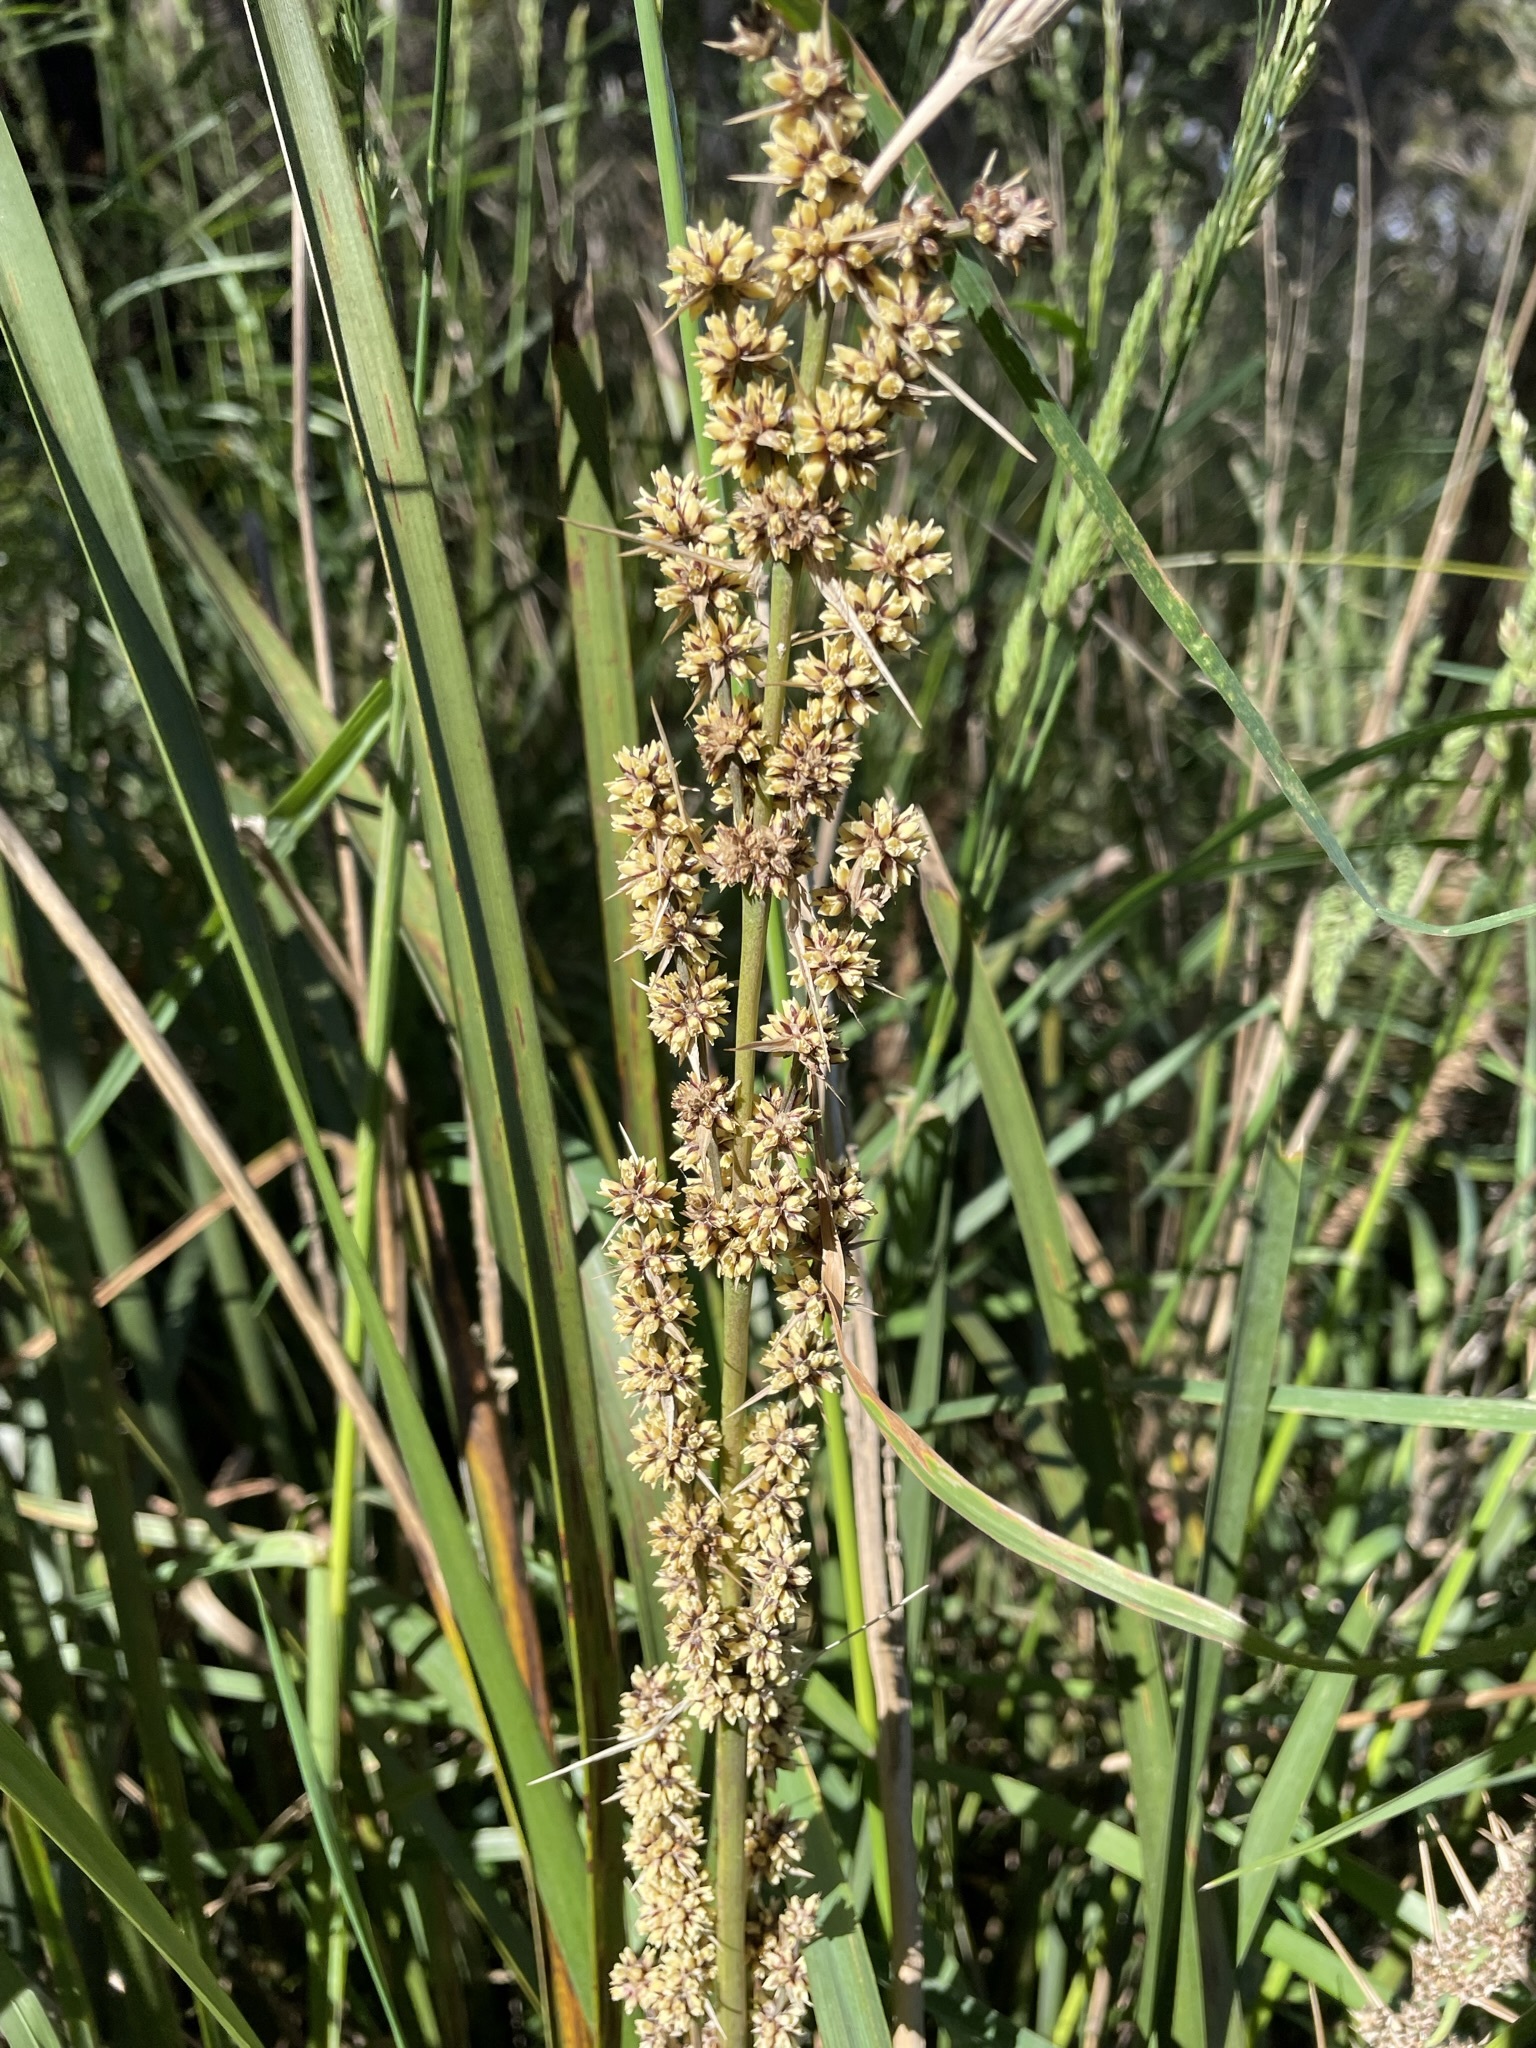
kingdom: Plantae
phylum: Tracheophyta
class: Liliopsida
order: Asparagales
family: Asparagaceae
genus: Lomandra
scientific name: Lomandra longifolia
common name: Longleaf mat-rush
